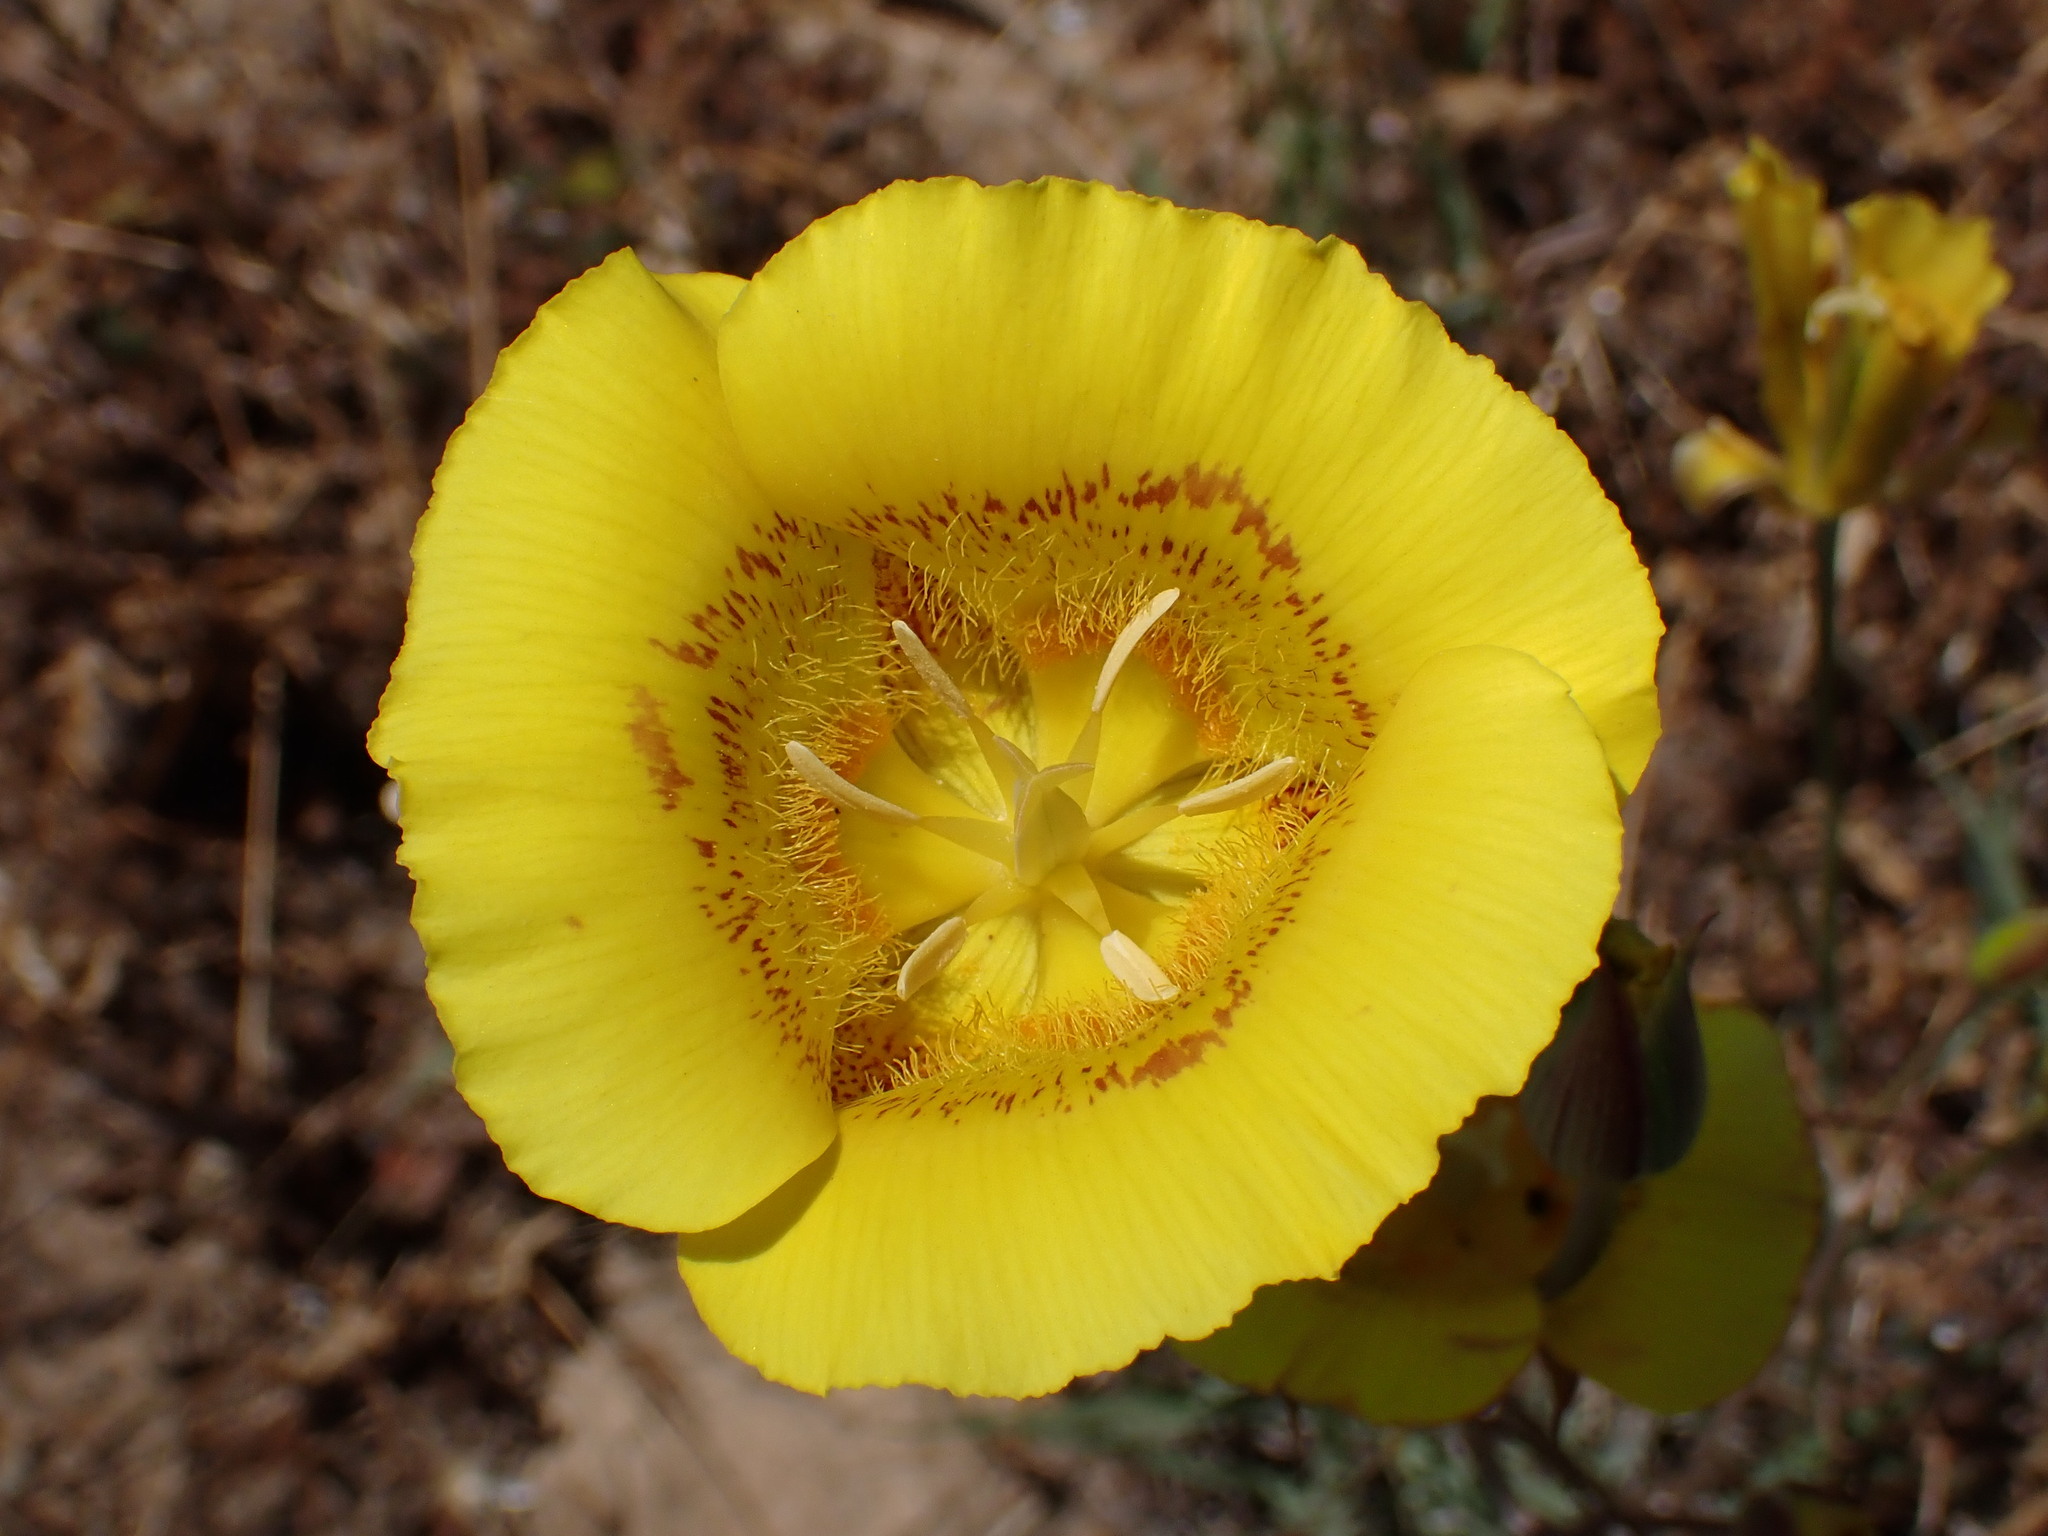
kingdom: Plantae
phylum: Tracheophyta
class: Liliopsida
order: Liliales
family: Liliaceae
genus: Calochortus
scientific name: Calochortus luteus
